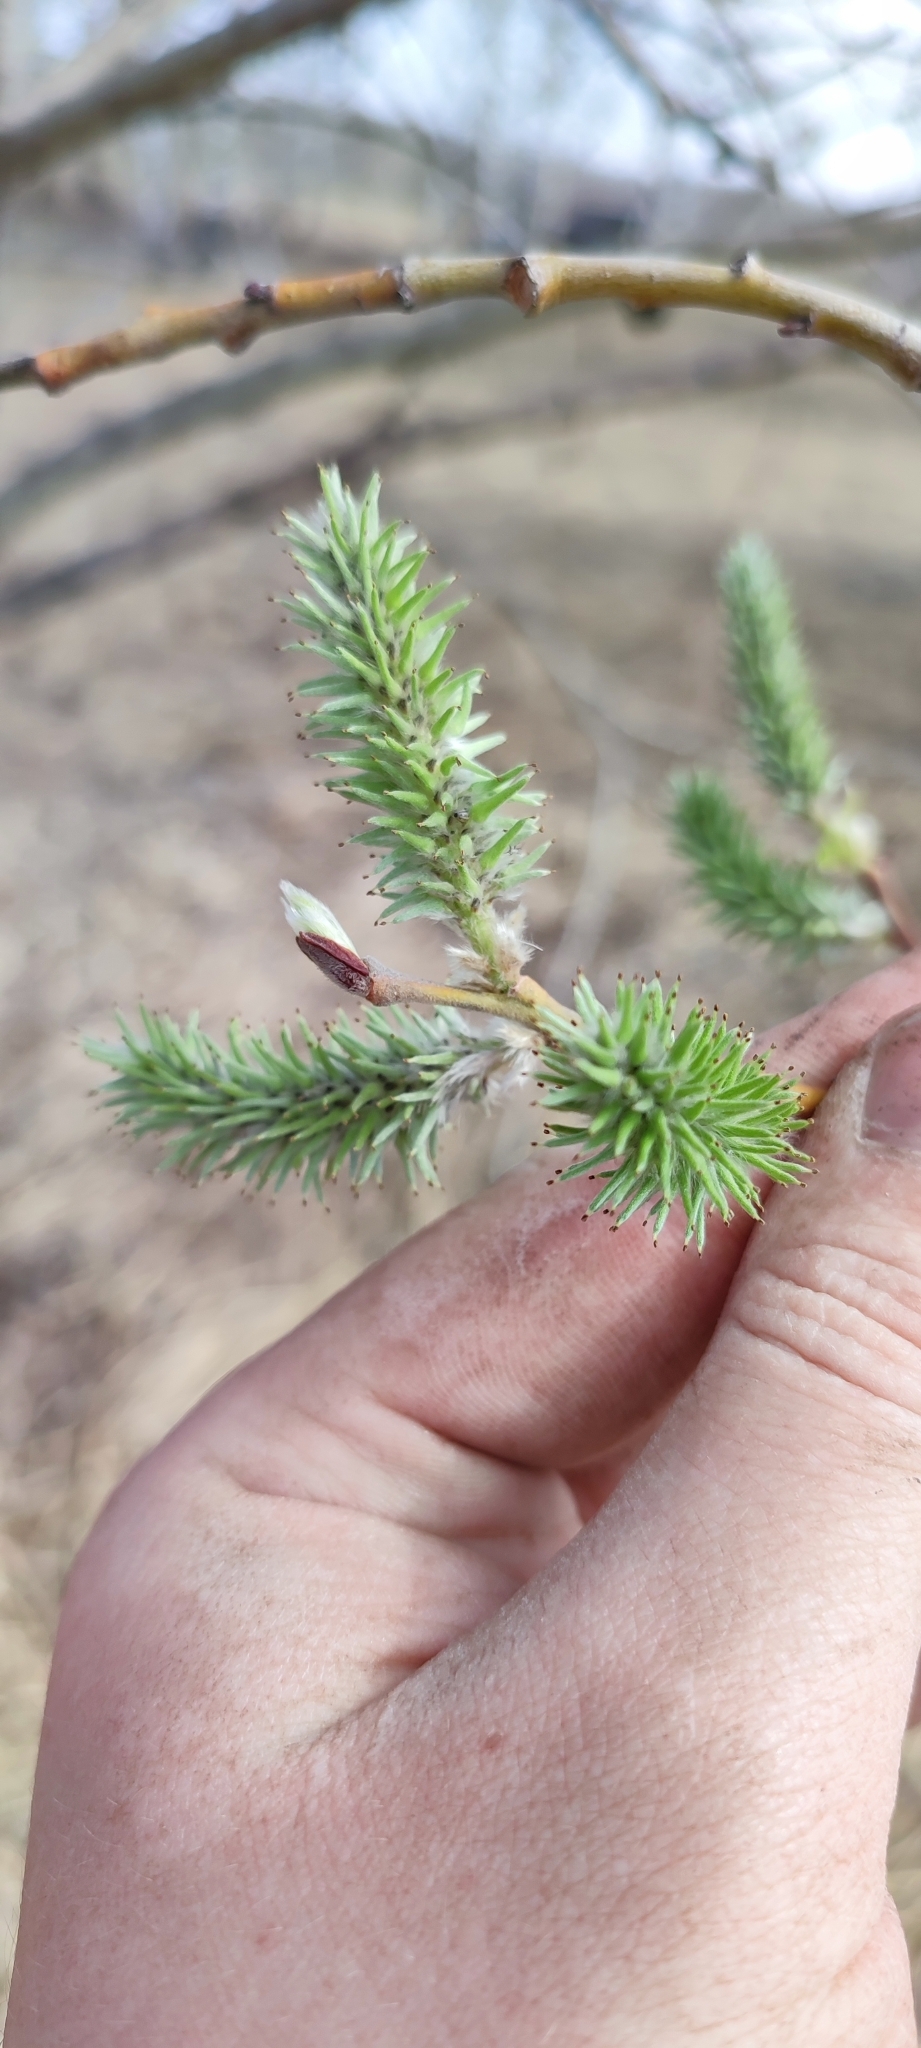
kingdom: Plantae
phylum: Tracheophyta
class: Magnoliopsida
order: Malpighiales
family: Salicaceae
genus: Salix
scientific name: Salix caprea
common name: Goat willow
